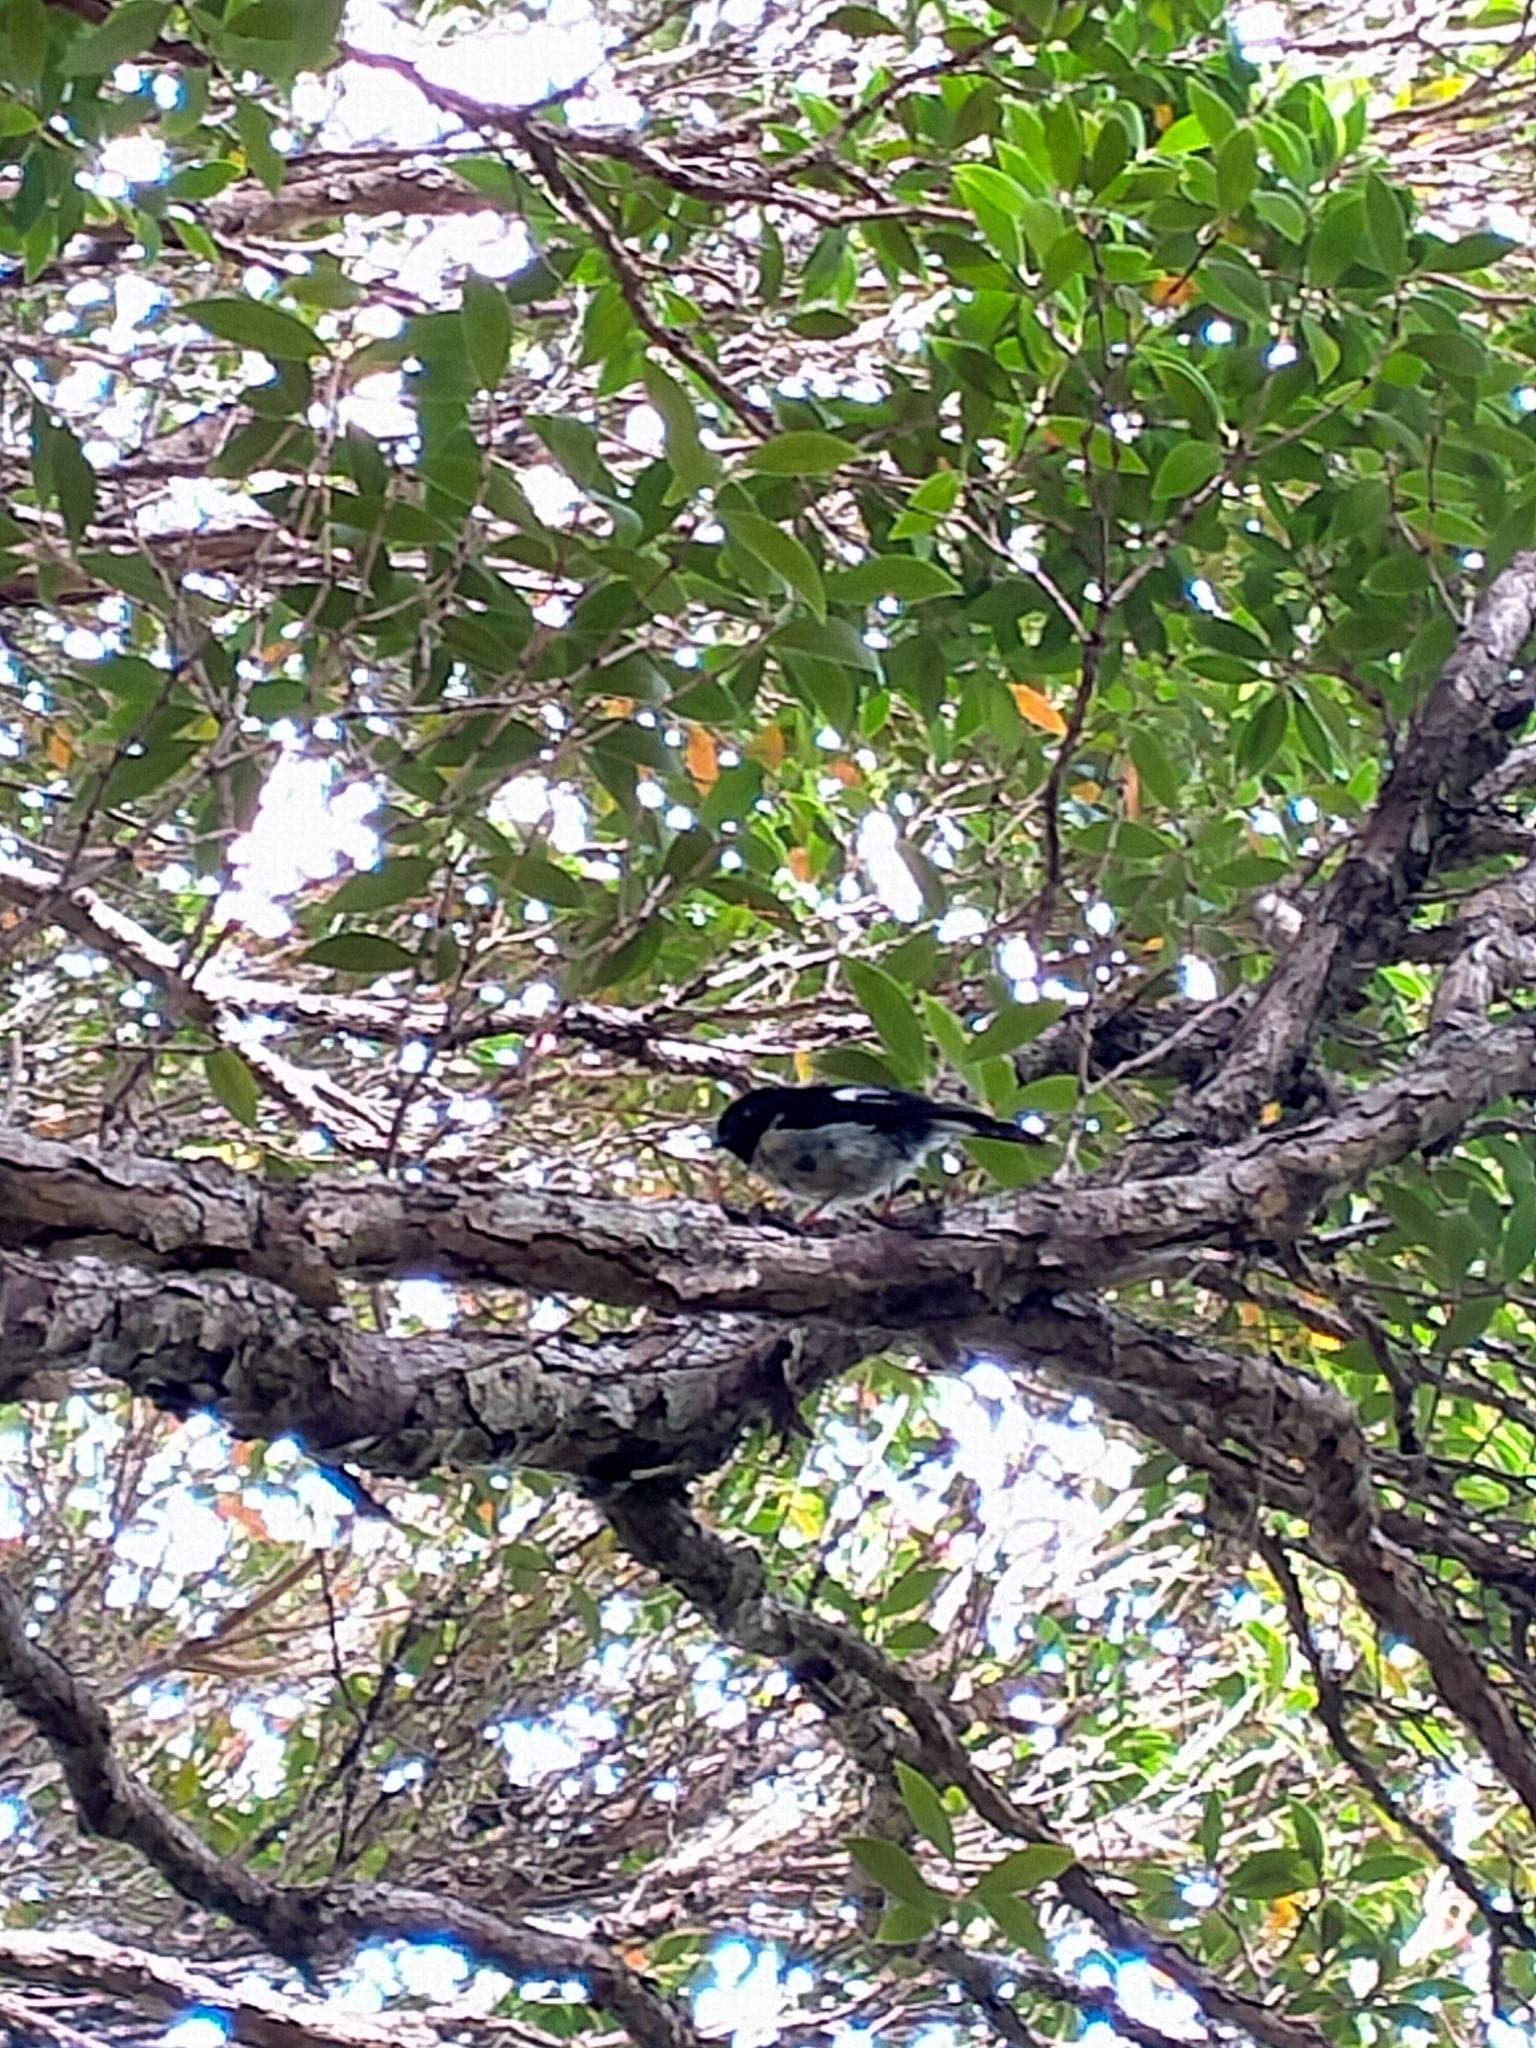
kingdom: Animalia
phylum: Chordata
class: Aves
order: Passeriformes
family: Petroicidae
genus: Petroica
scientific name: Petroica macrocephala
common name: Tomtit
